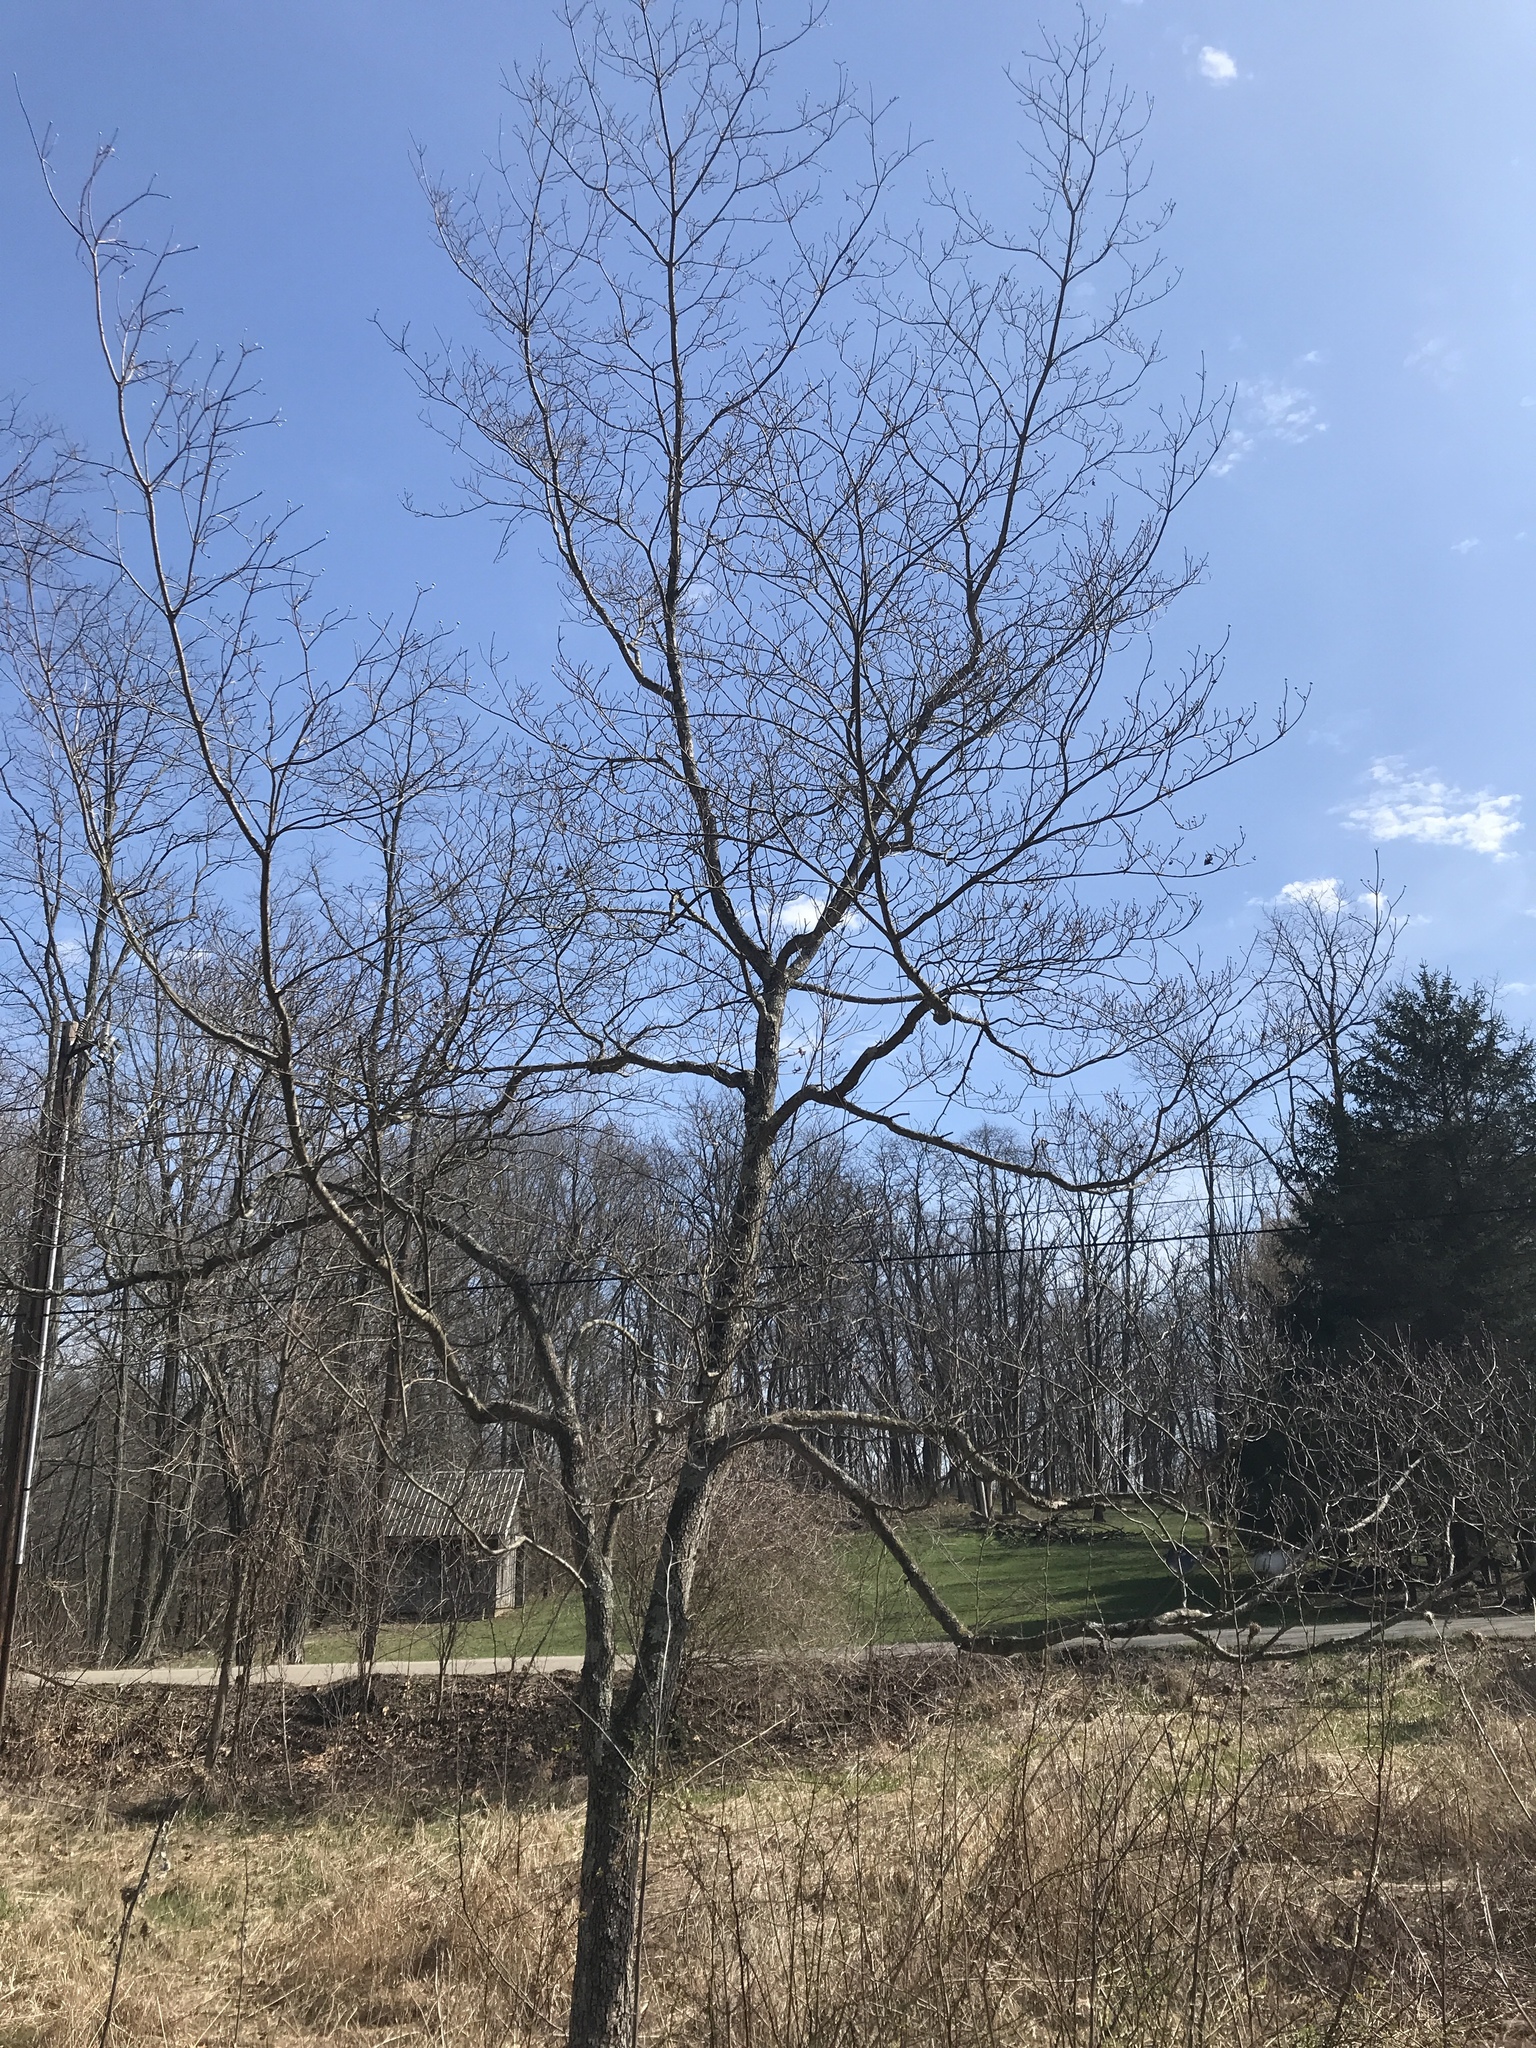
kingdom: Plantae
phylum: Tracheophyta
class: Magnoliopsida
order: Cornales
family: Cornaceae
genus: Cornus
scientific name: Cornus florida
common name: Flowering dogwood
